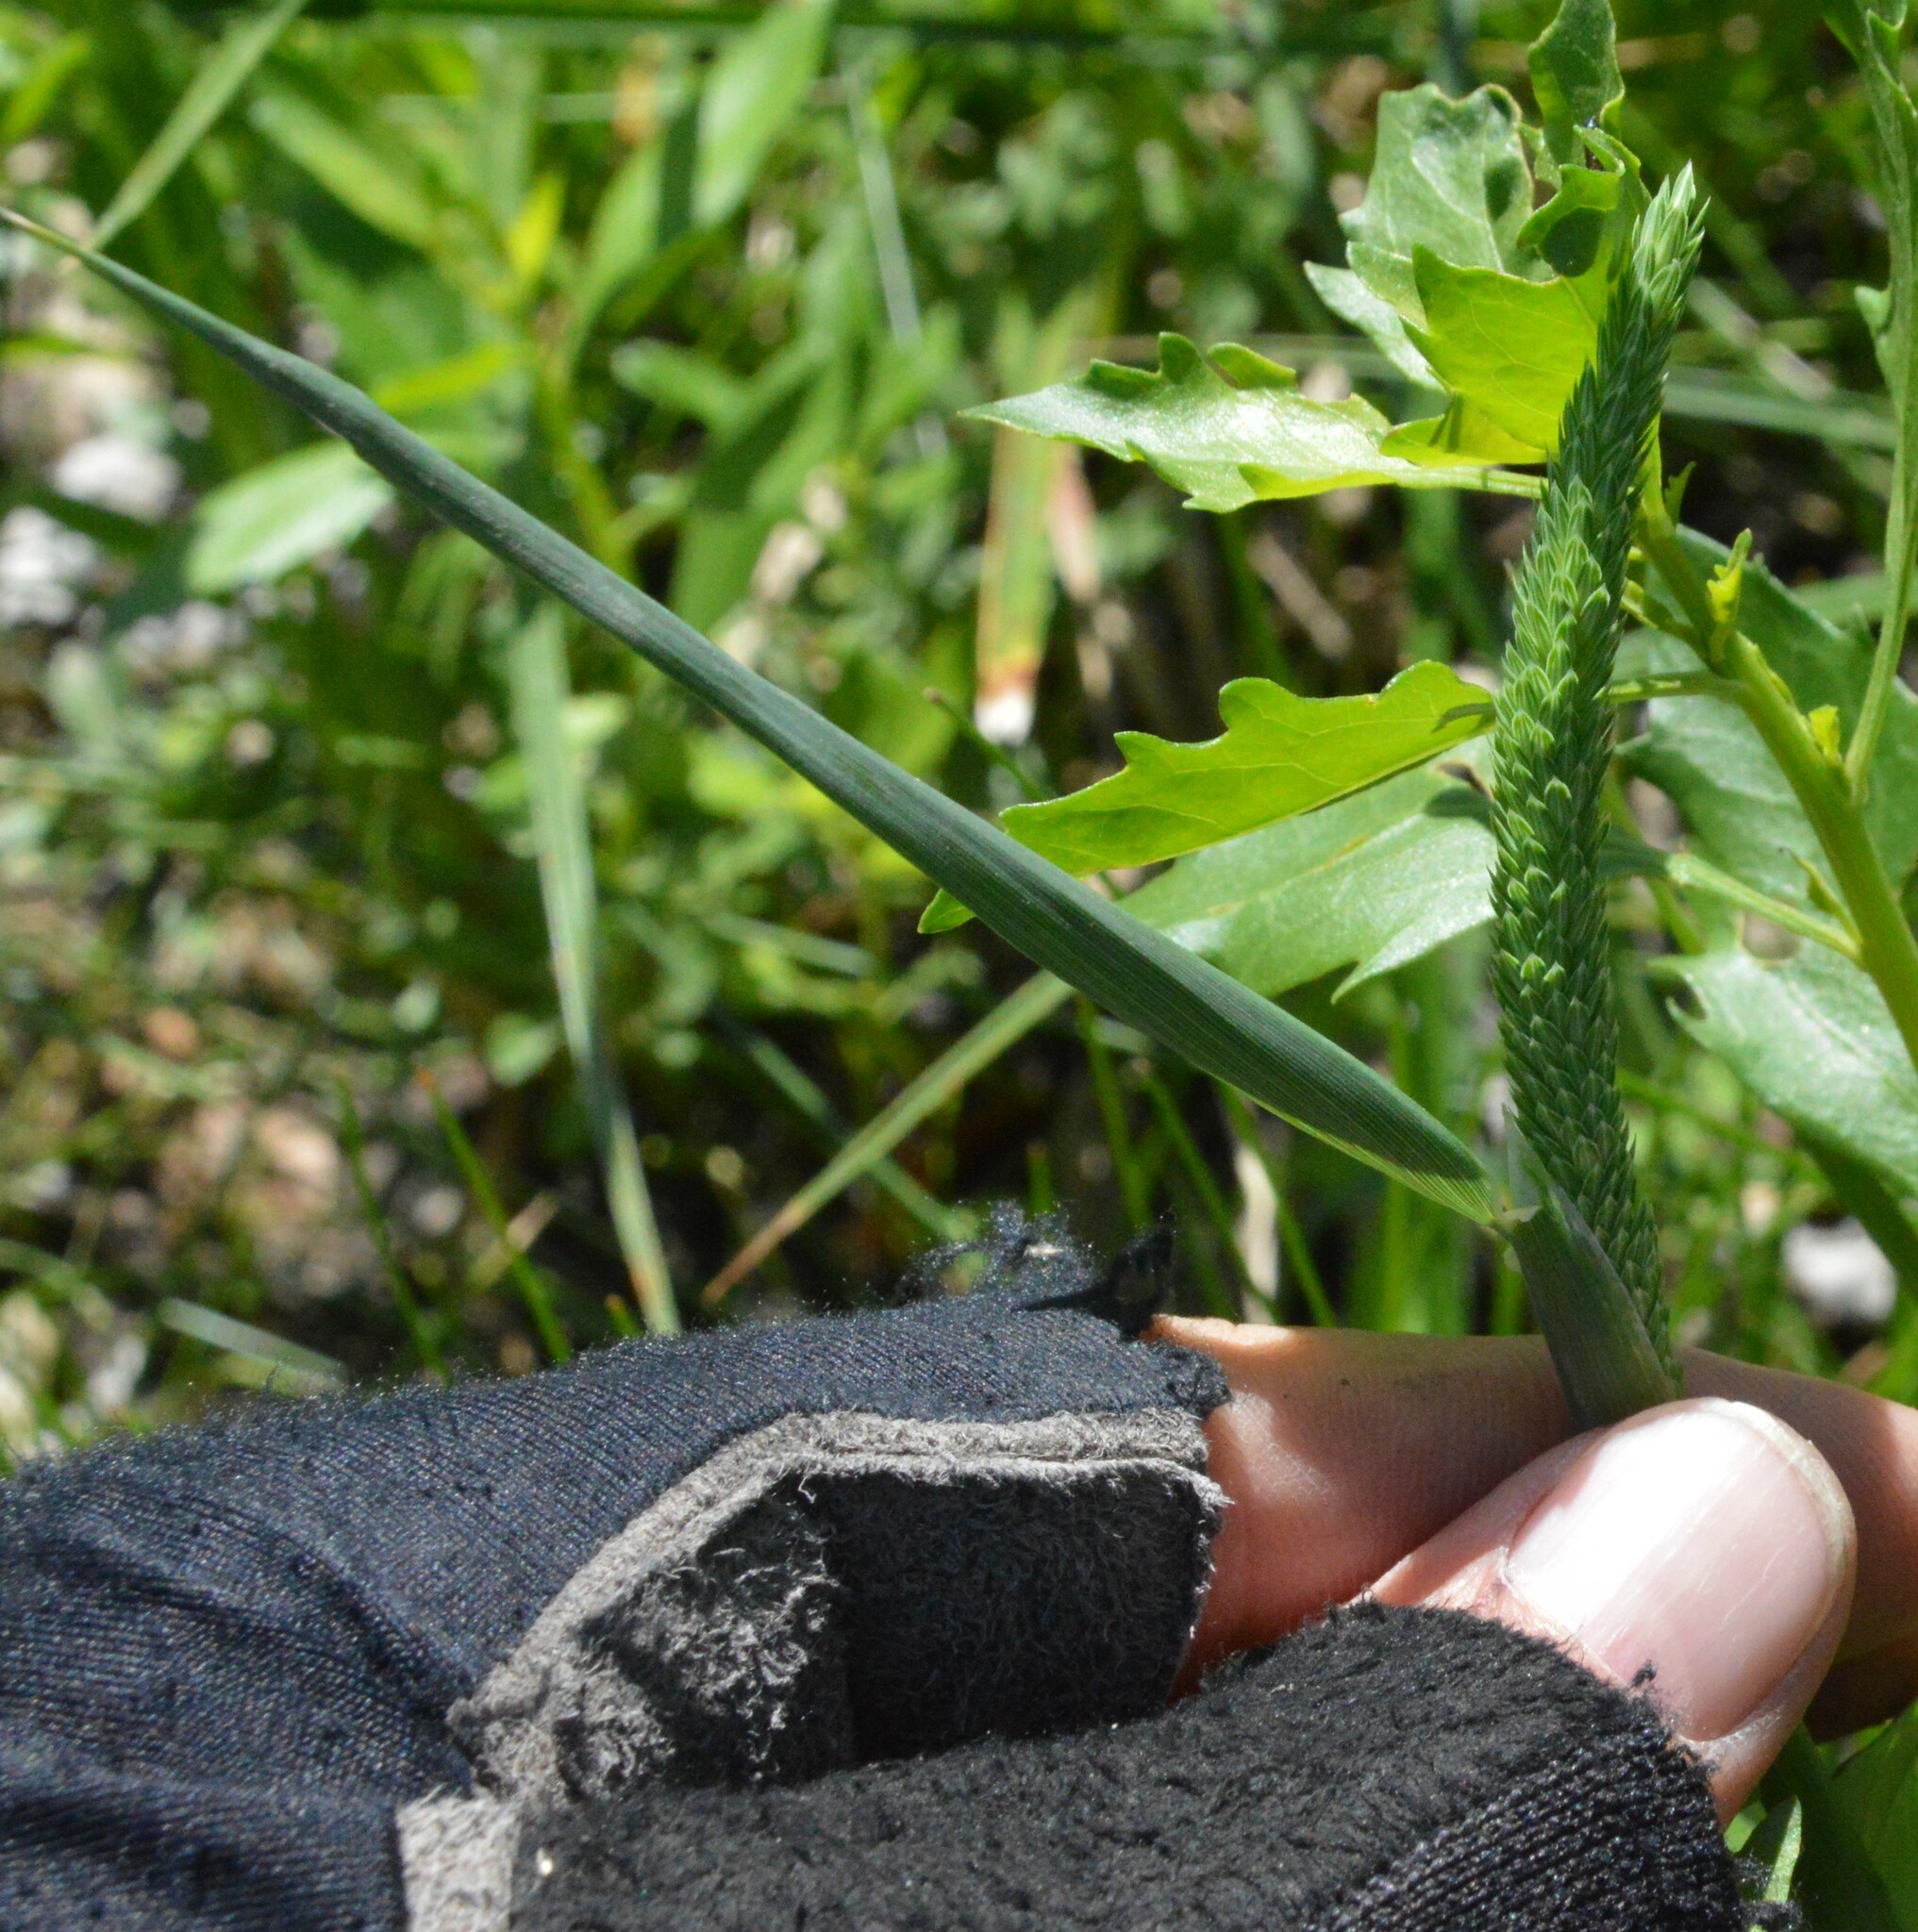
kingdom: Plantae
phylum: Tracheophyta
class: Liliopsida
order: Poales
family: Poaceae
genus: Phalaris
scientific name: Phalaris angusta
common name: Narrow canary grass
